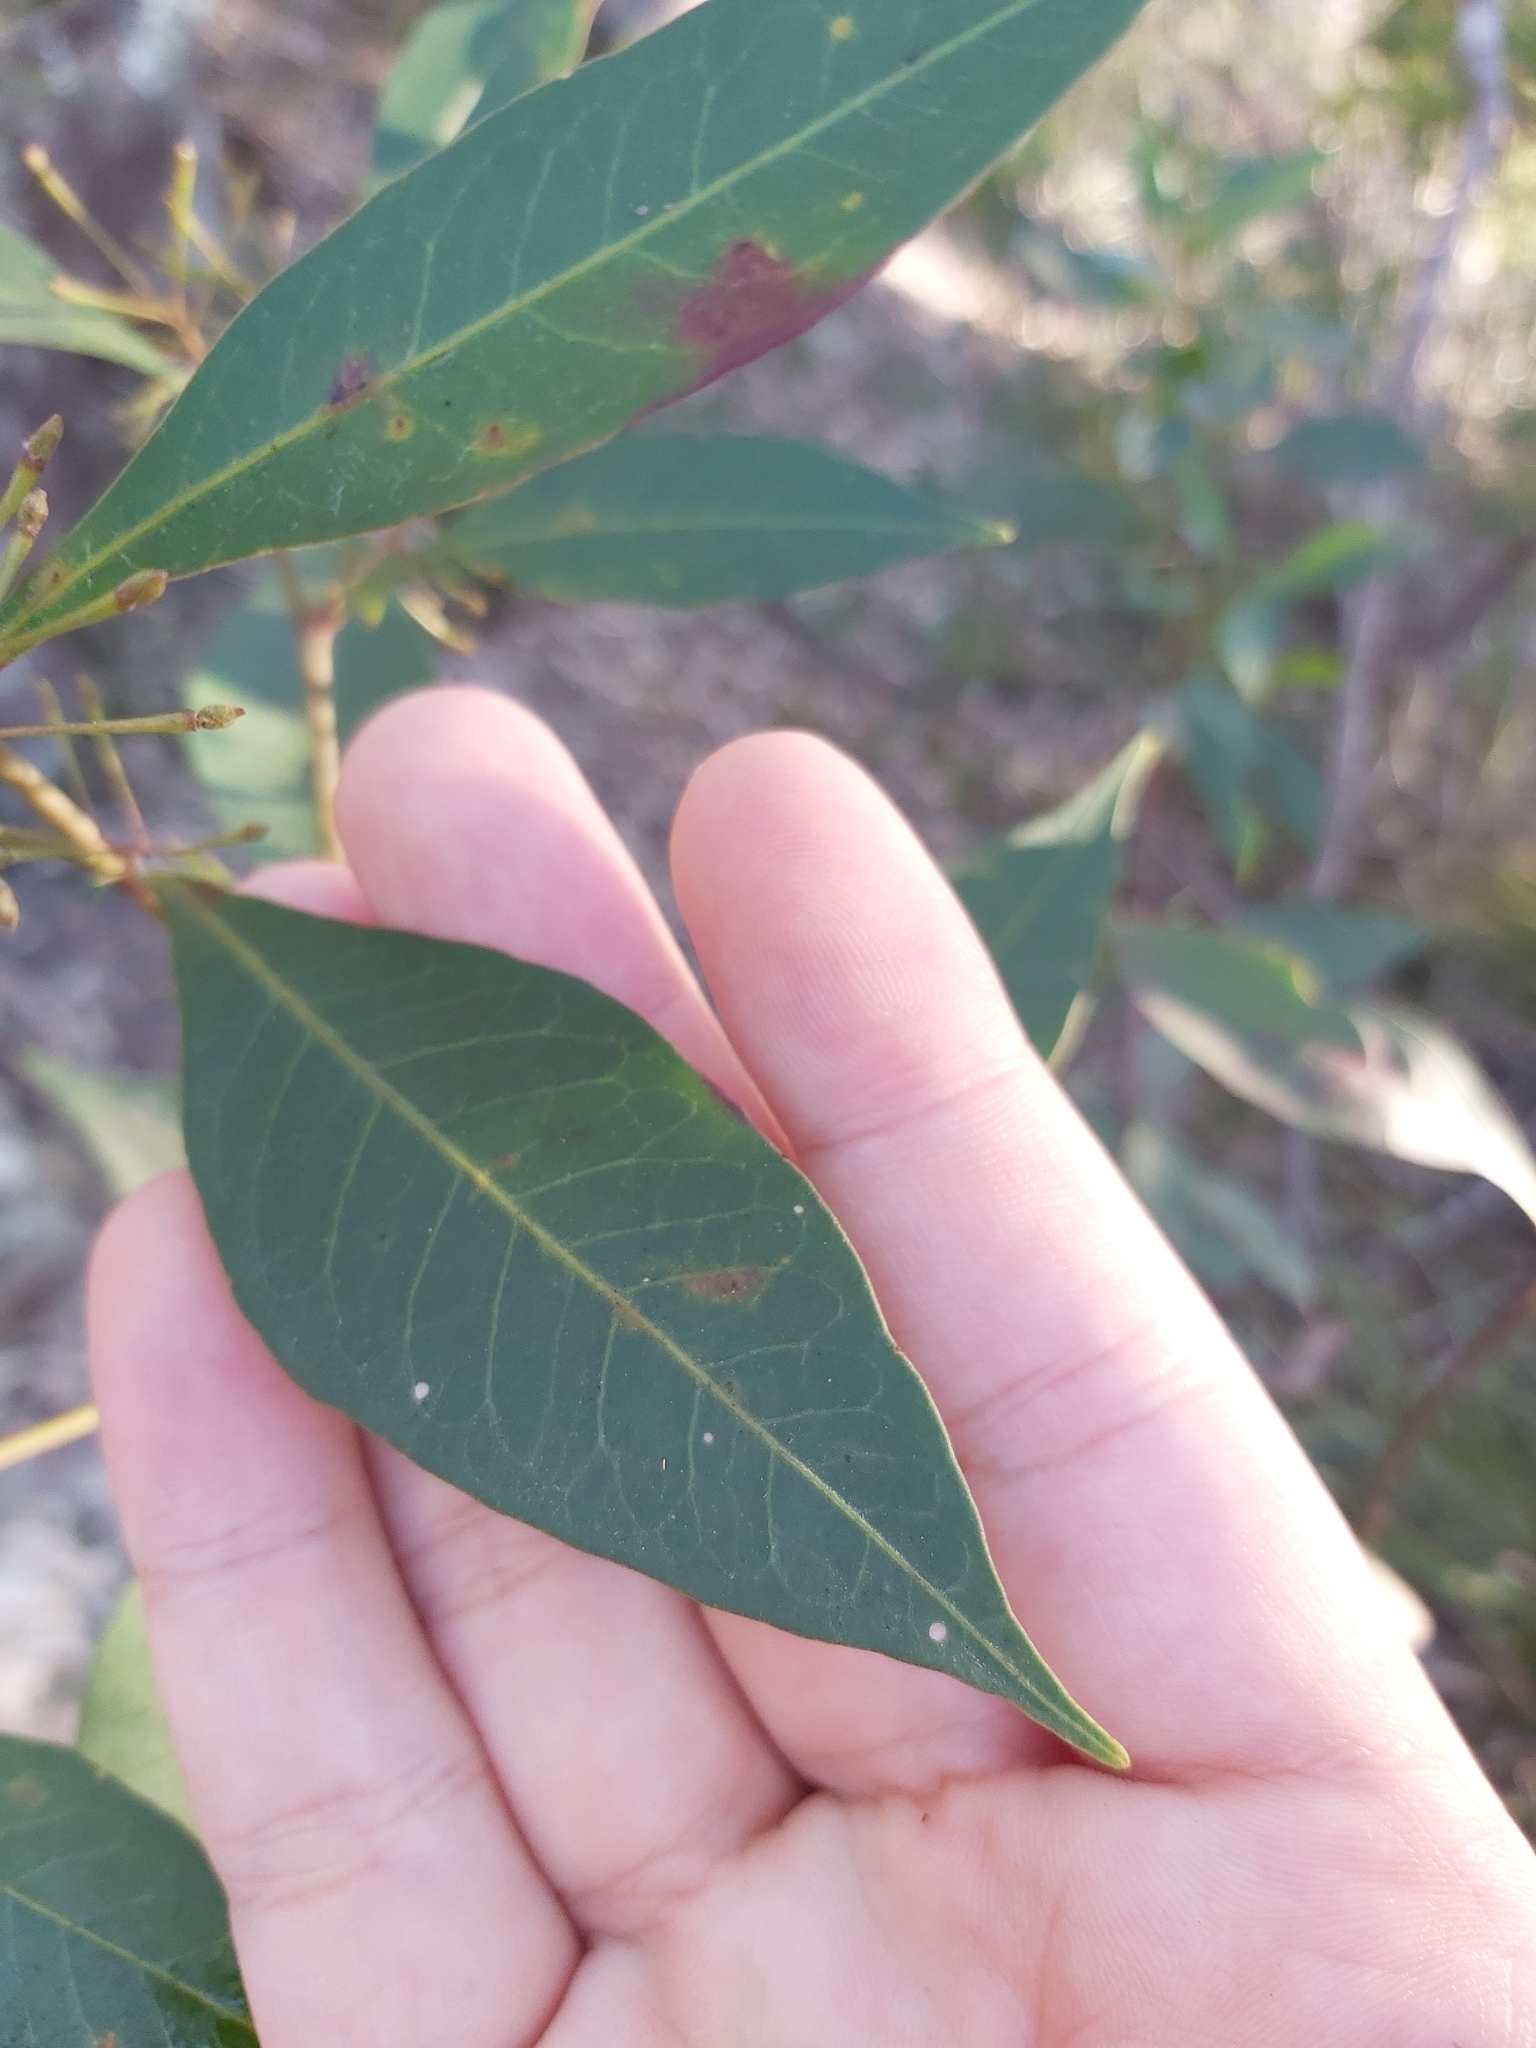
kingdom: Plantae
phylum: Tracheophyta
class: Magnoliopsida
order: Sapindales
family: Sapindaceae
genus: Dodonaea
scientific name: Dodonaea triquetra
